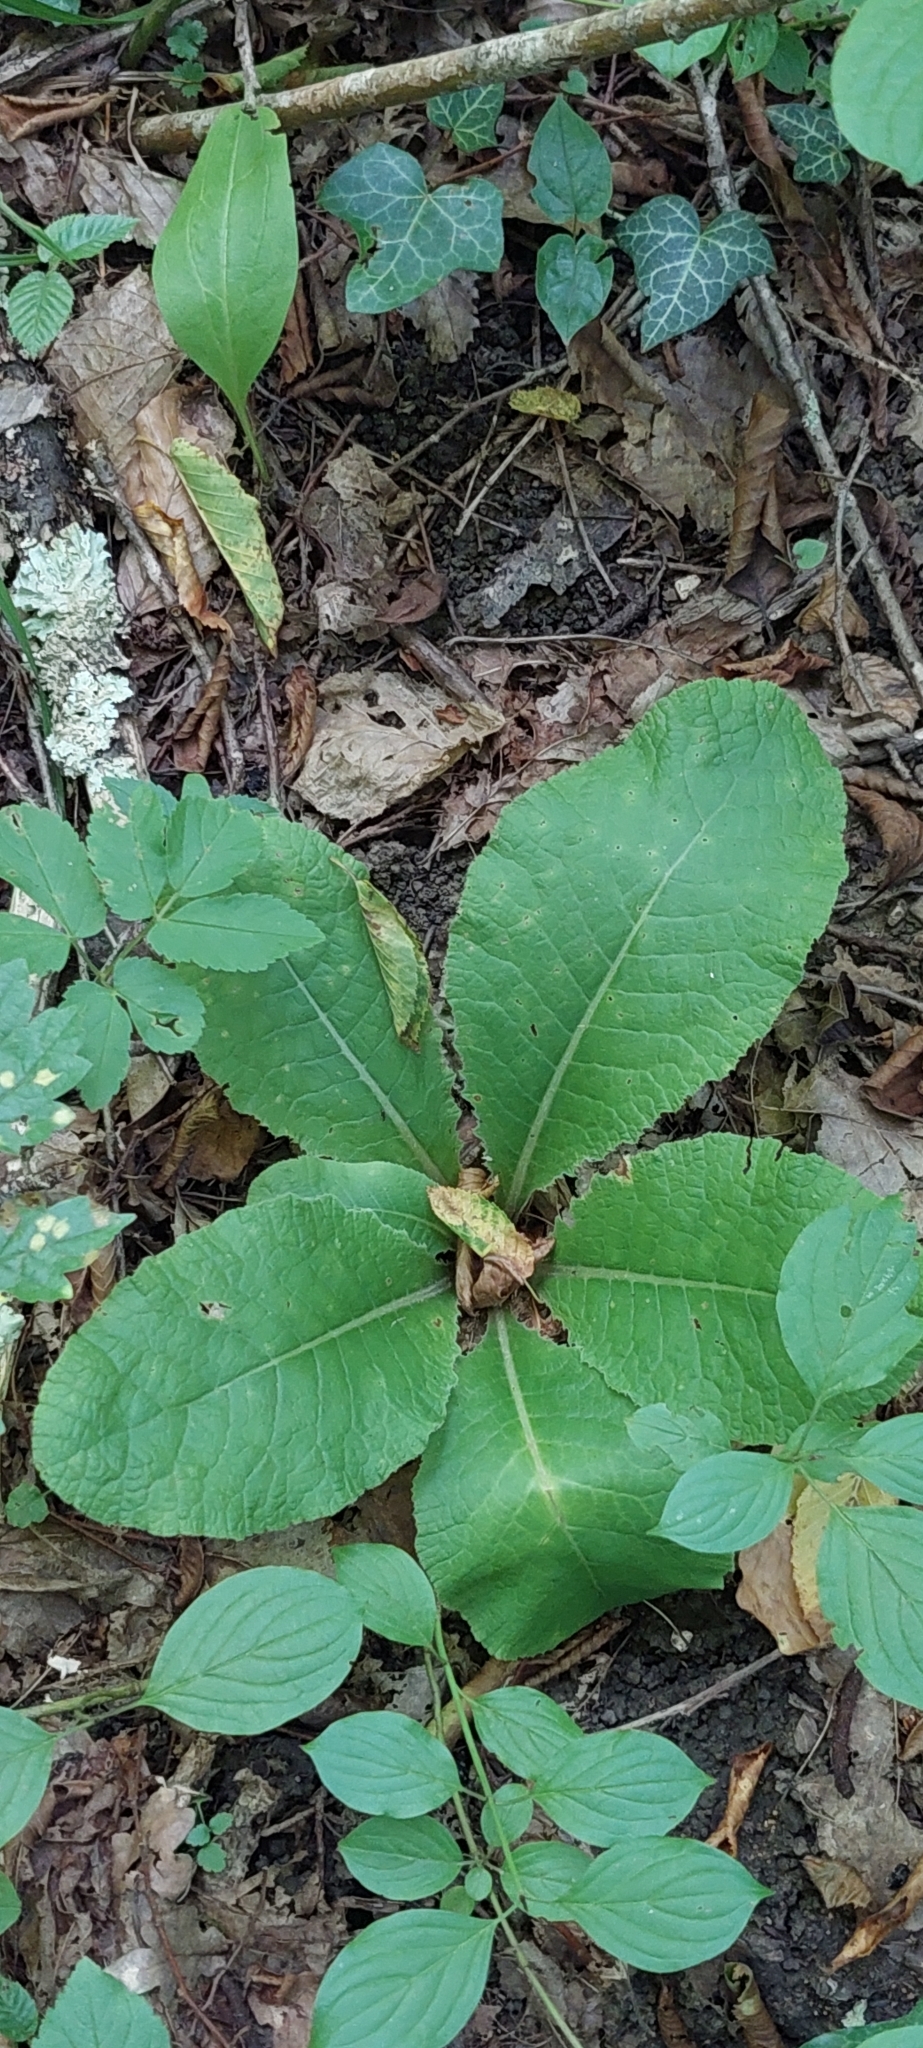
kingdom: Plantae
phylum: Tracheophyta
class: Magnoliopsida
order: Ericales
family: Primulaceae
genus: Primula
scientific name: Primula vulgaris
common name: Primrose
